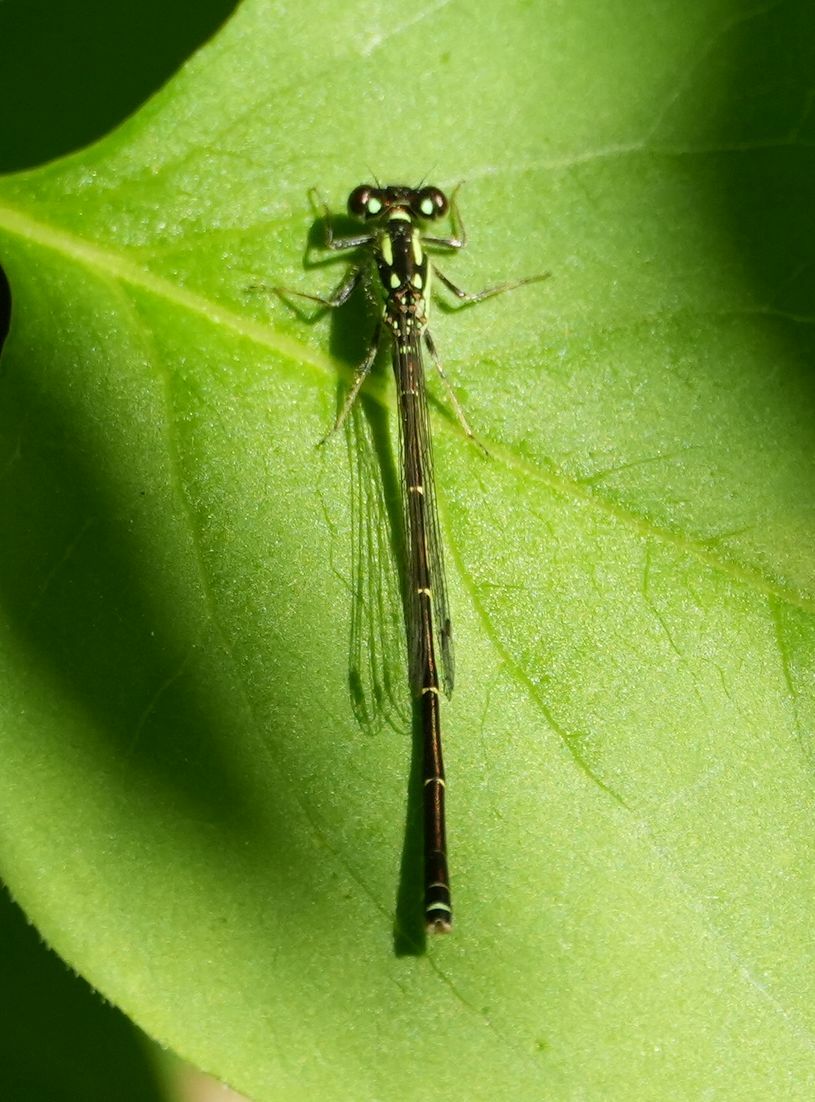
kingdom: Animalia
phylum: Arthropoda
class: Insecta
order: Odonata
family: Coenagrionidae
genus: Ischnura
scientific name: Ischnura posita
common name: Fragile forktail
